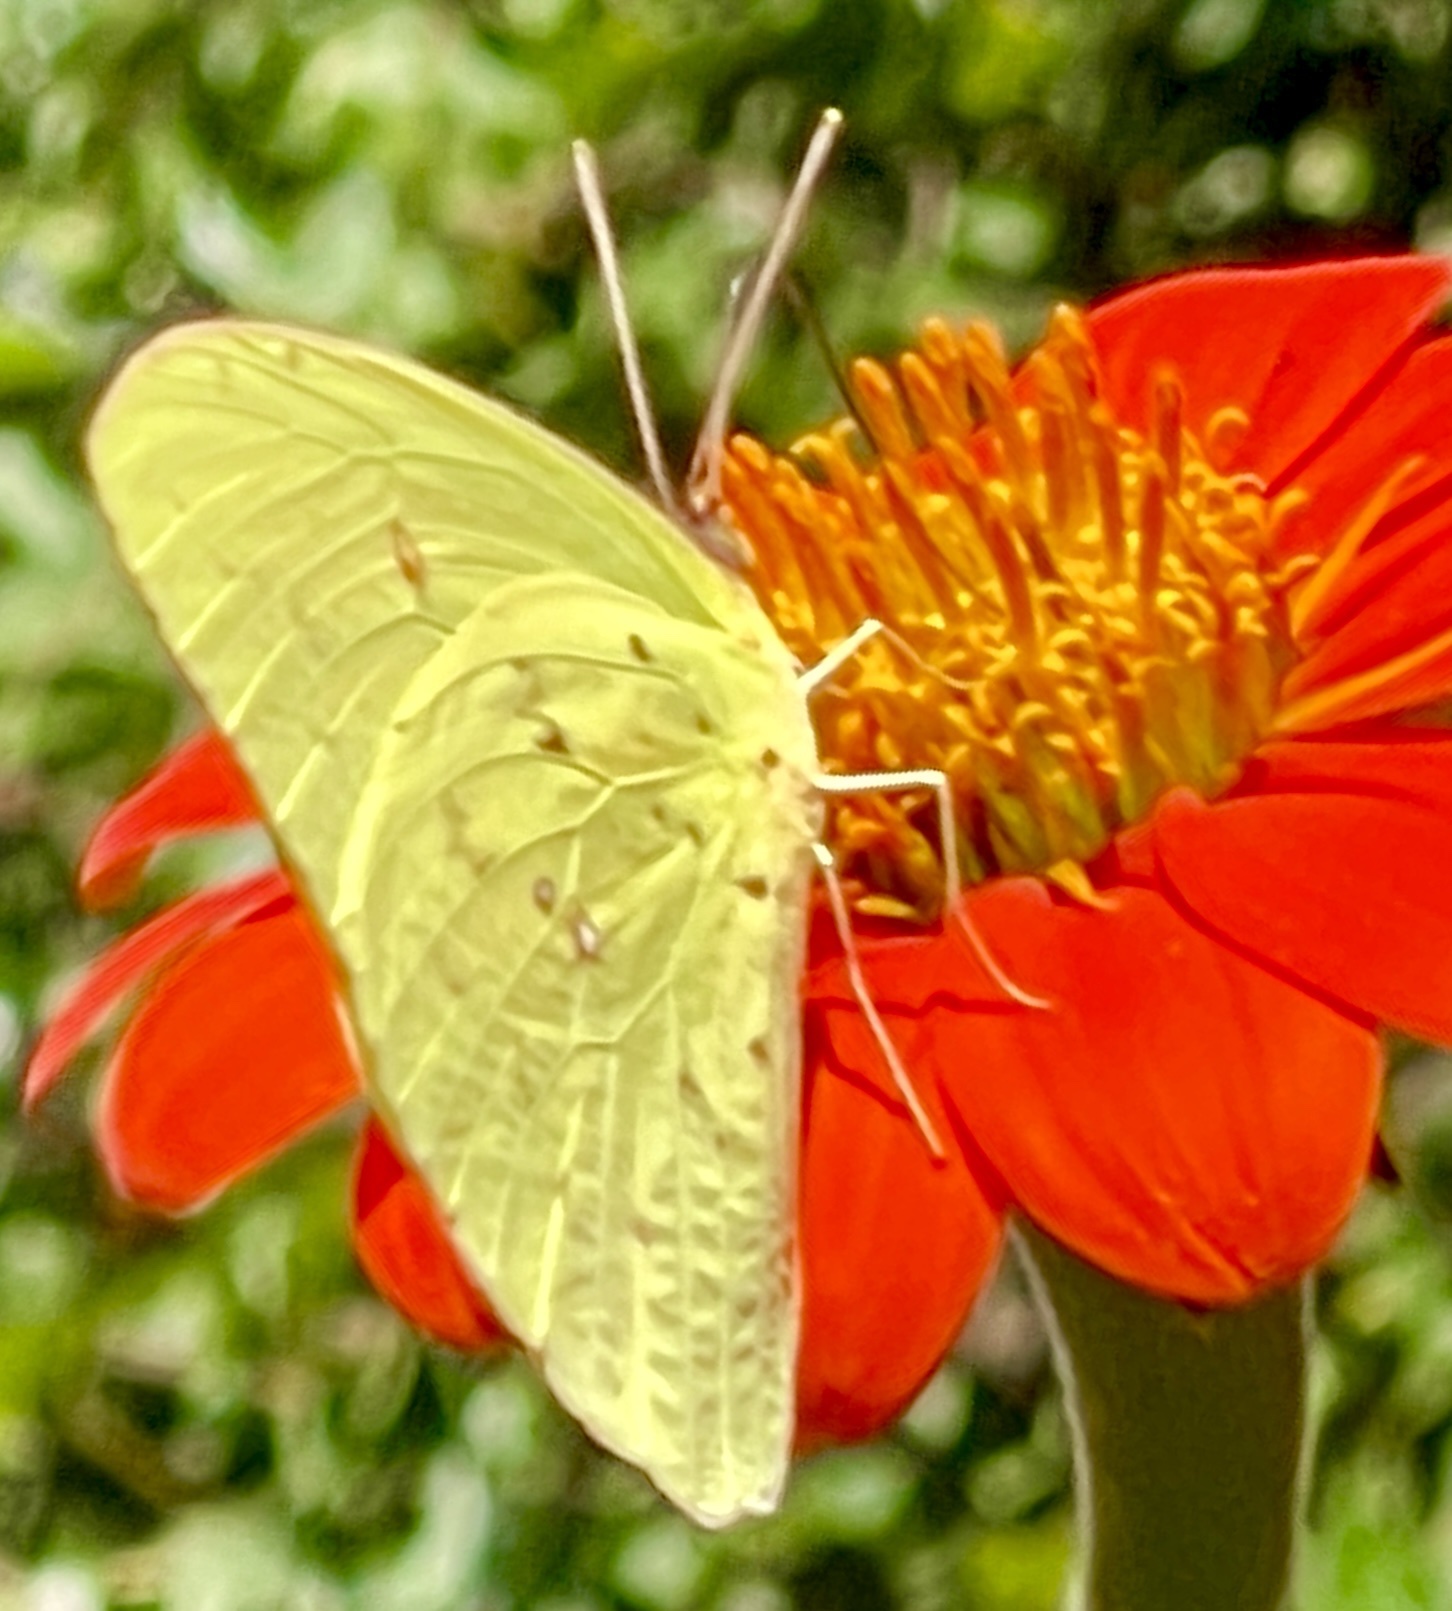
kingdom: Animalia
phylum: Arthropoda
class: Insecta
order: Lepidoptera
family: Pieridae
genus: Phoebis
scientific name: Phoebis sennae
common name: Cloudless sulphur
